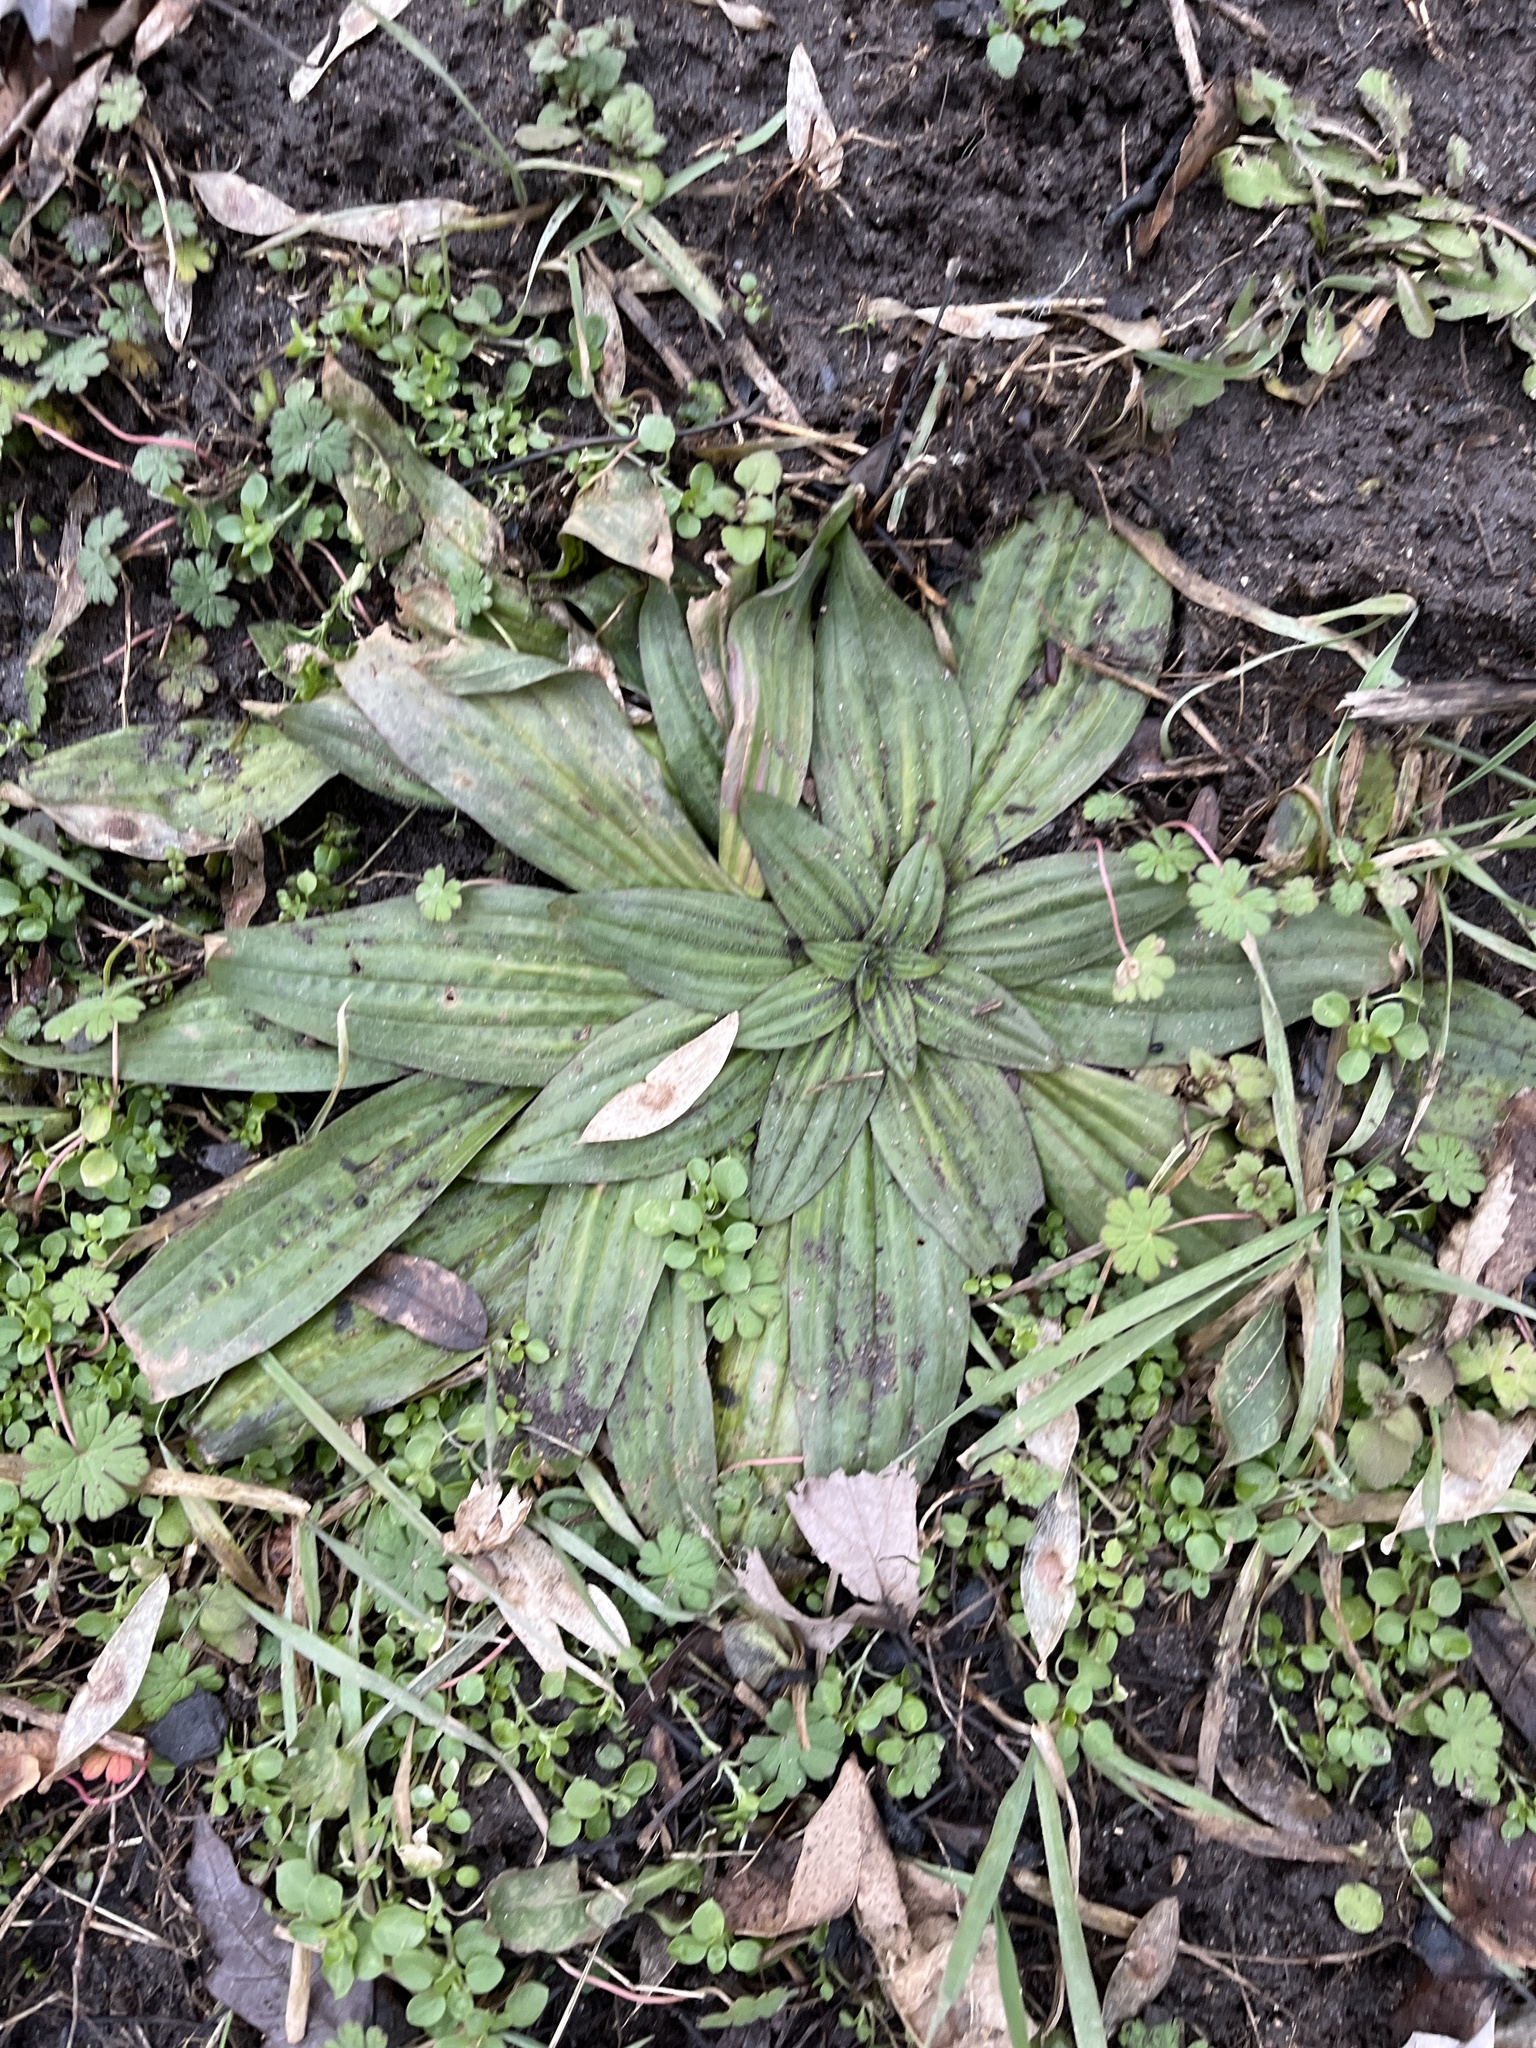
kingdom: Plantae
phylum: Tracheophyta
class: Magnoliopsida
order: Lamiales
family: Plantaginaceae
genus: Plantago
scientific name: Plantago lanceolata
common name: Ribwort plantain
